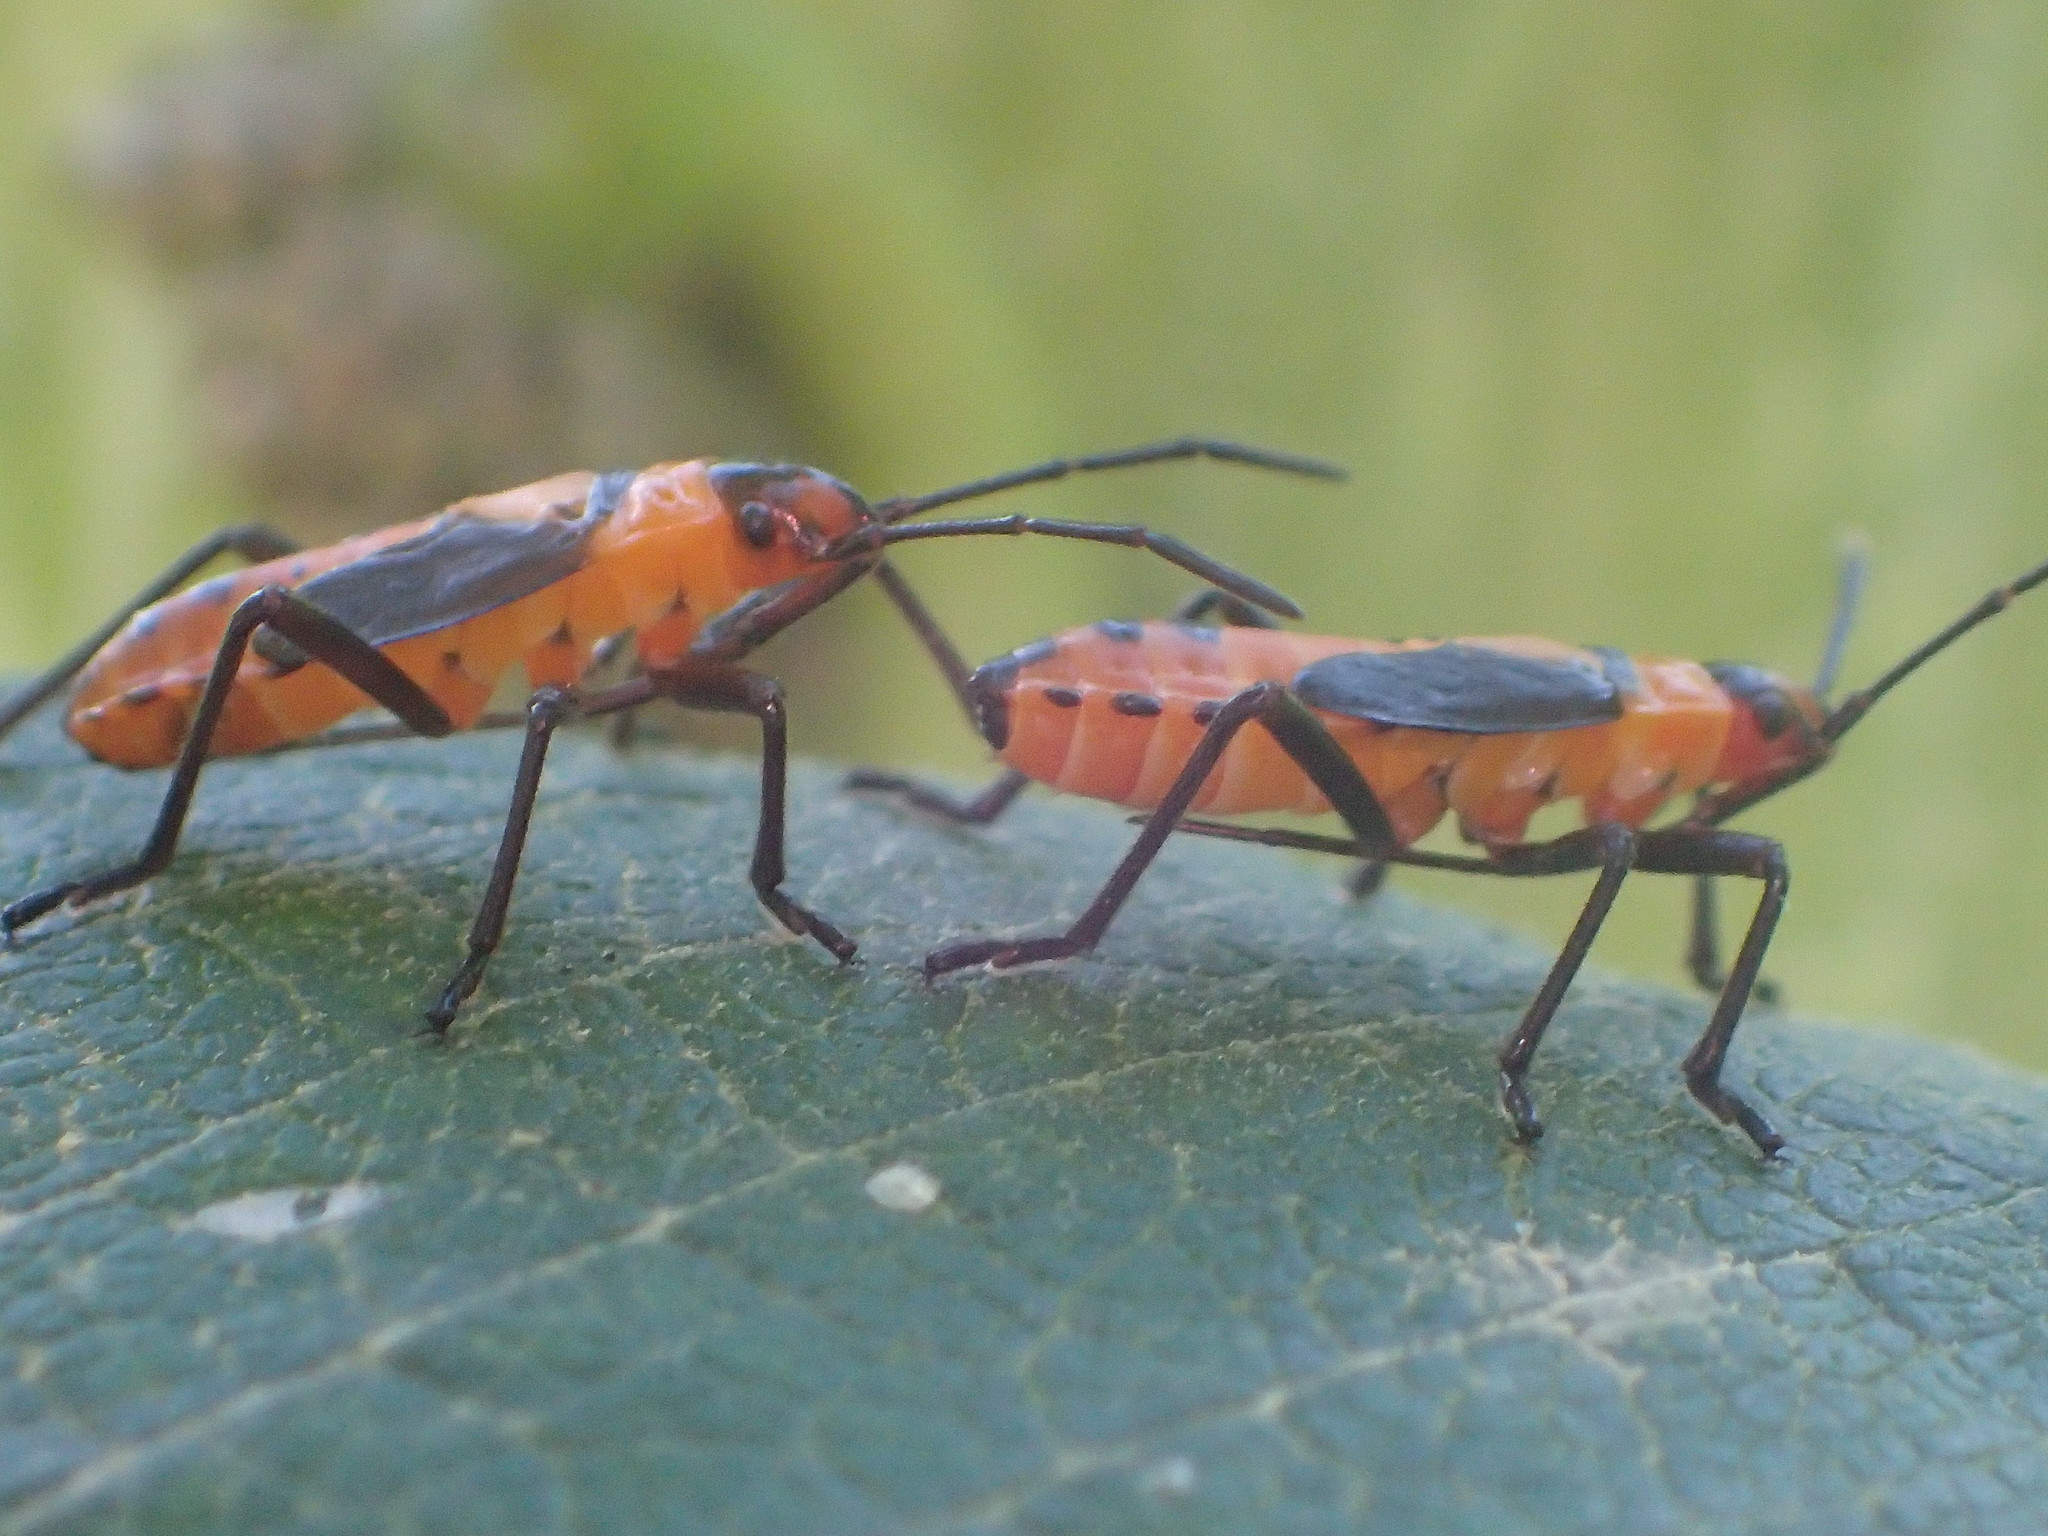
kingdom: Animalia
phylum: Arthropoda
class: Insecta
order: Hemiptera
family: Lygaeidae
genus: Oncopeltus
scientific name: Oncopeltus fasciatus
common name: Large milkweed bug
